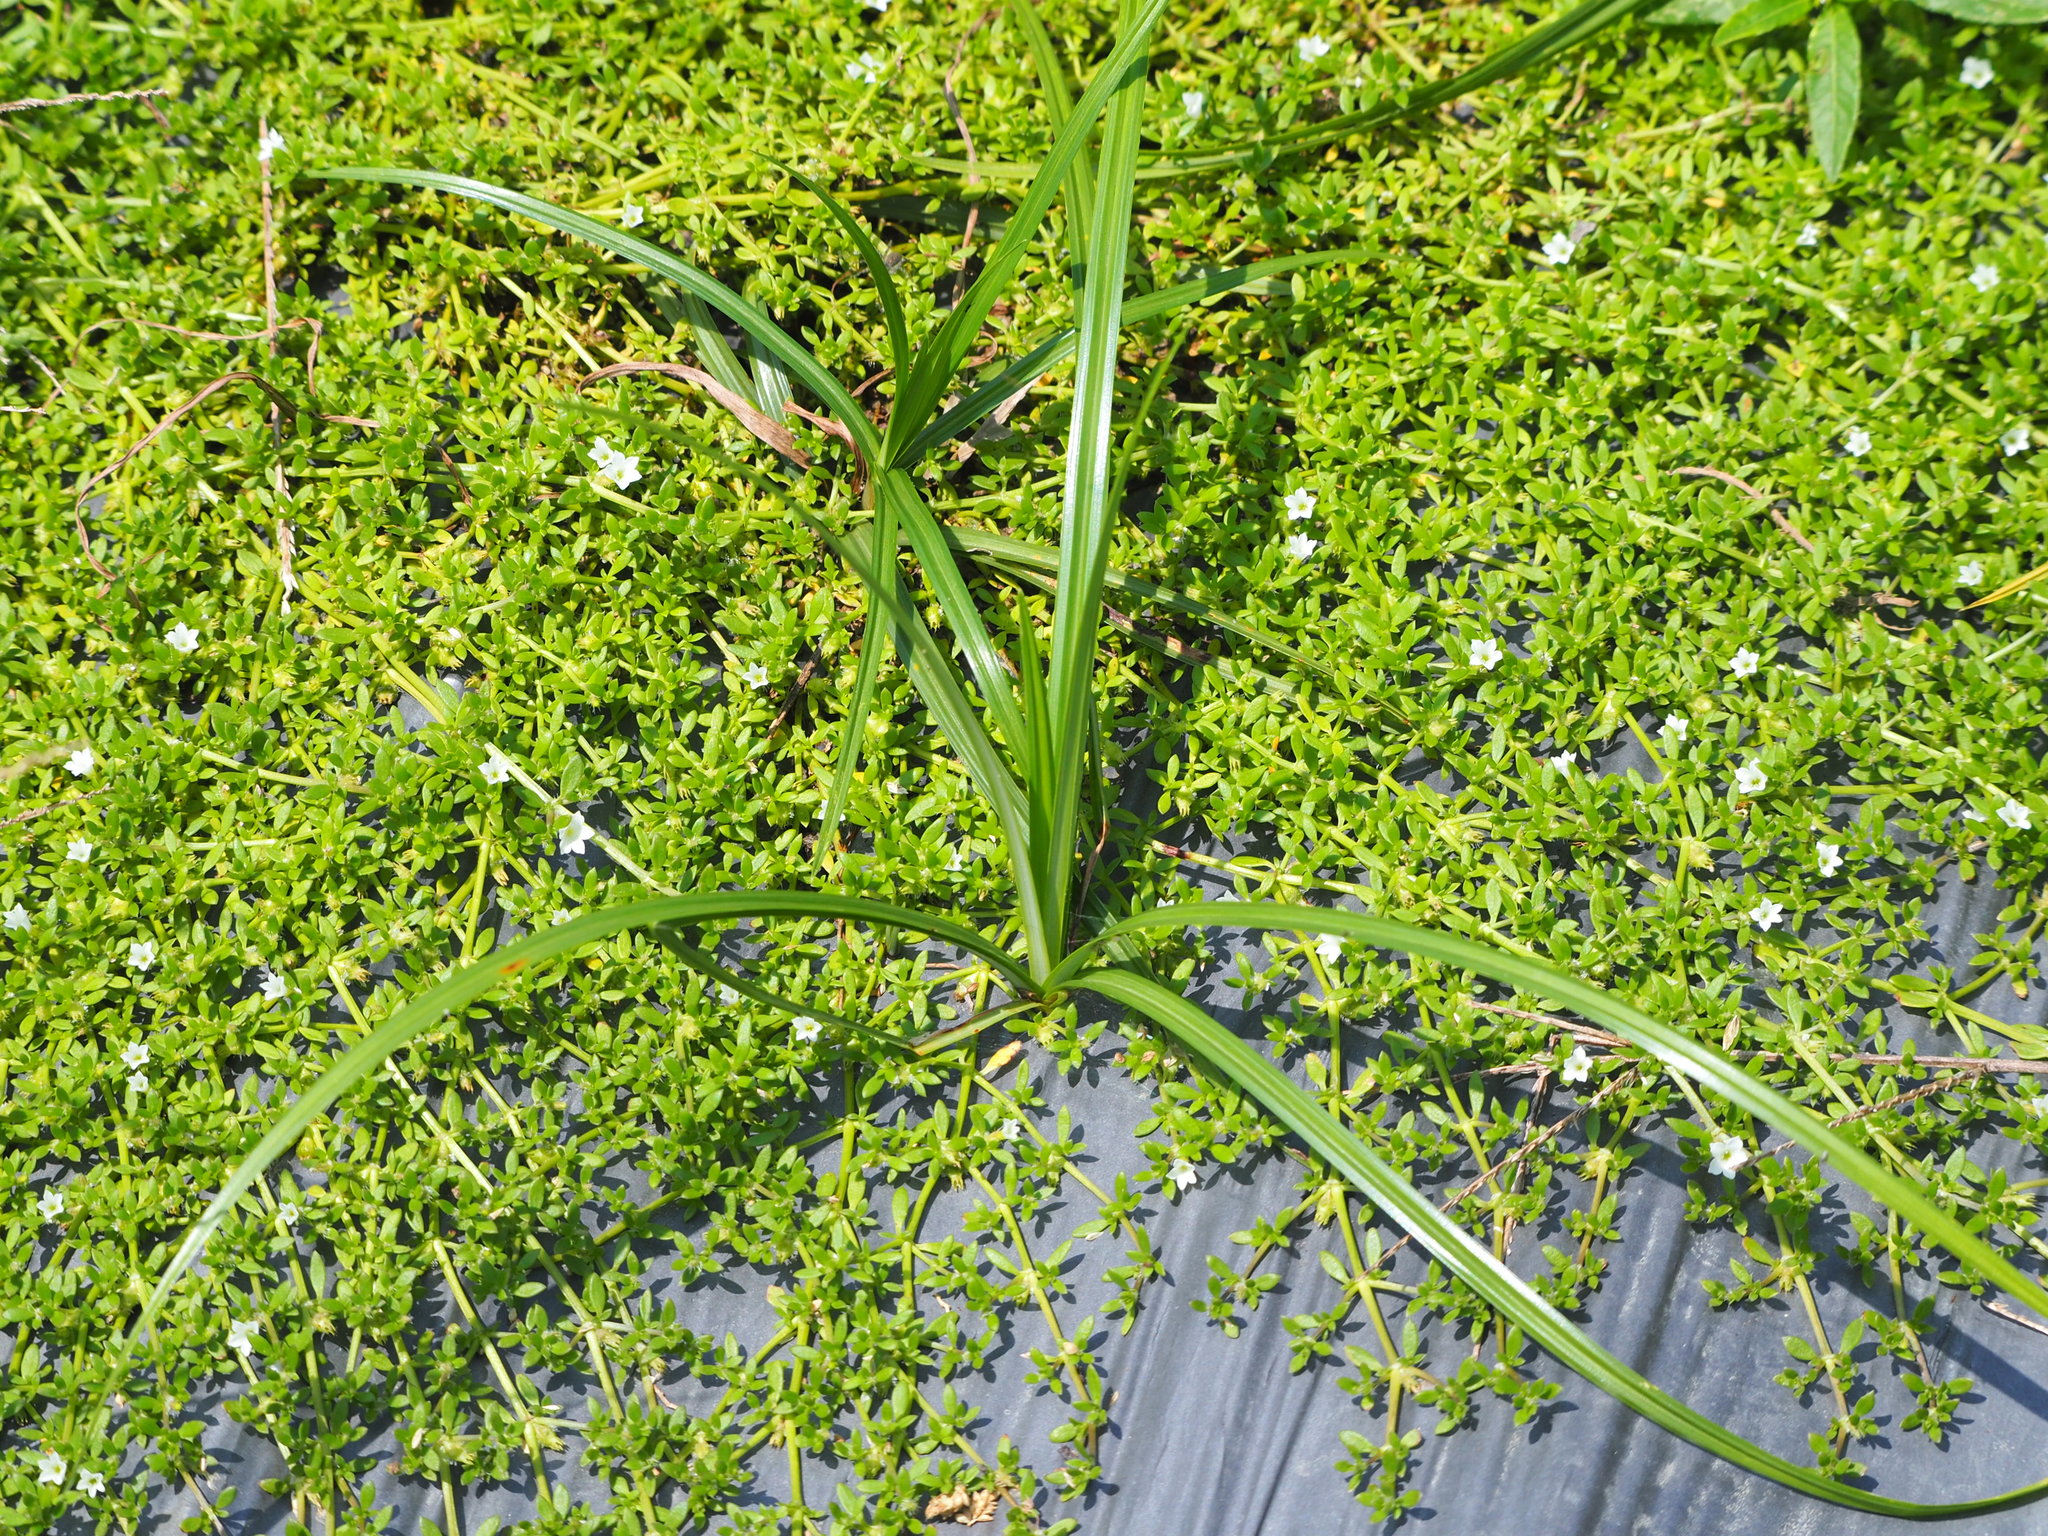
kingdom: Plantae
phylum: Tracheophyta
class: Liliopsida
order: Poales
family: Cyperaceae
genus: Cyperus
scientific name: Cyperus rotundus
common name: Nutgrass
